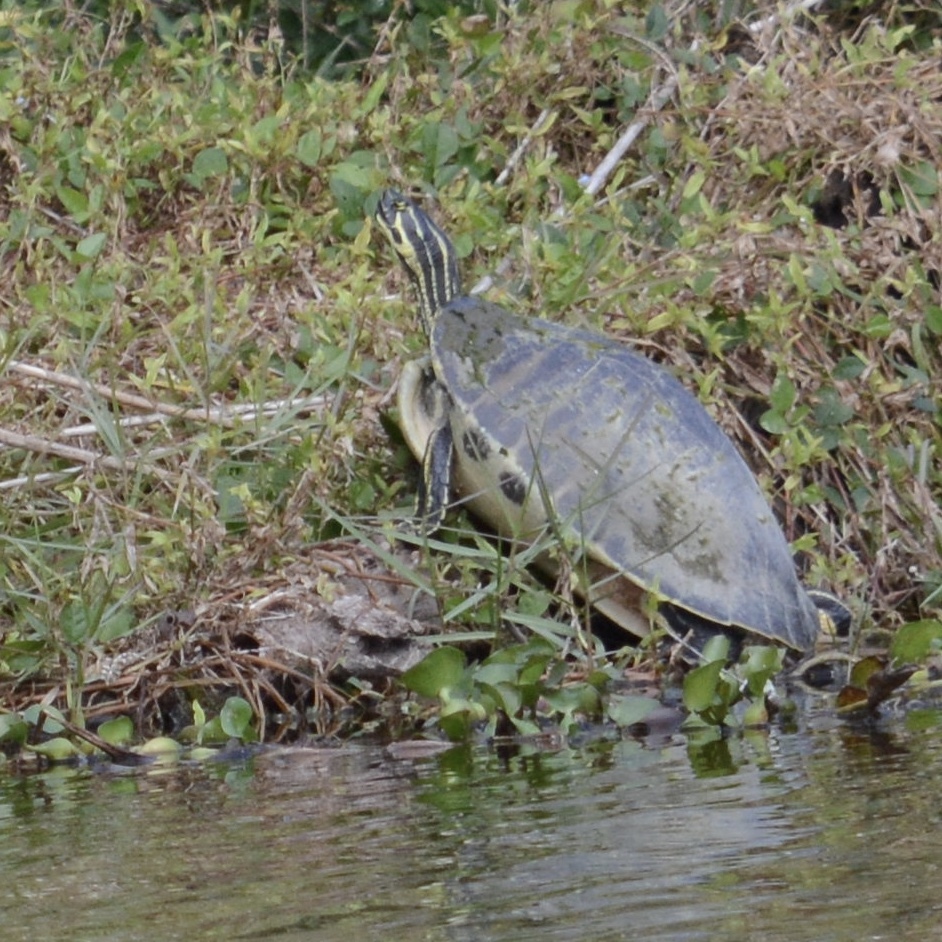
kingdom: Animalia
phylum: Chordata
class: Testudines
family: Emydidae
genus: Pseudemys
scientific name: Pseudemys peninsularis
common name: Peninsula cooter
